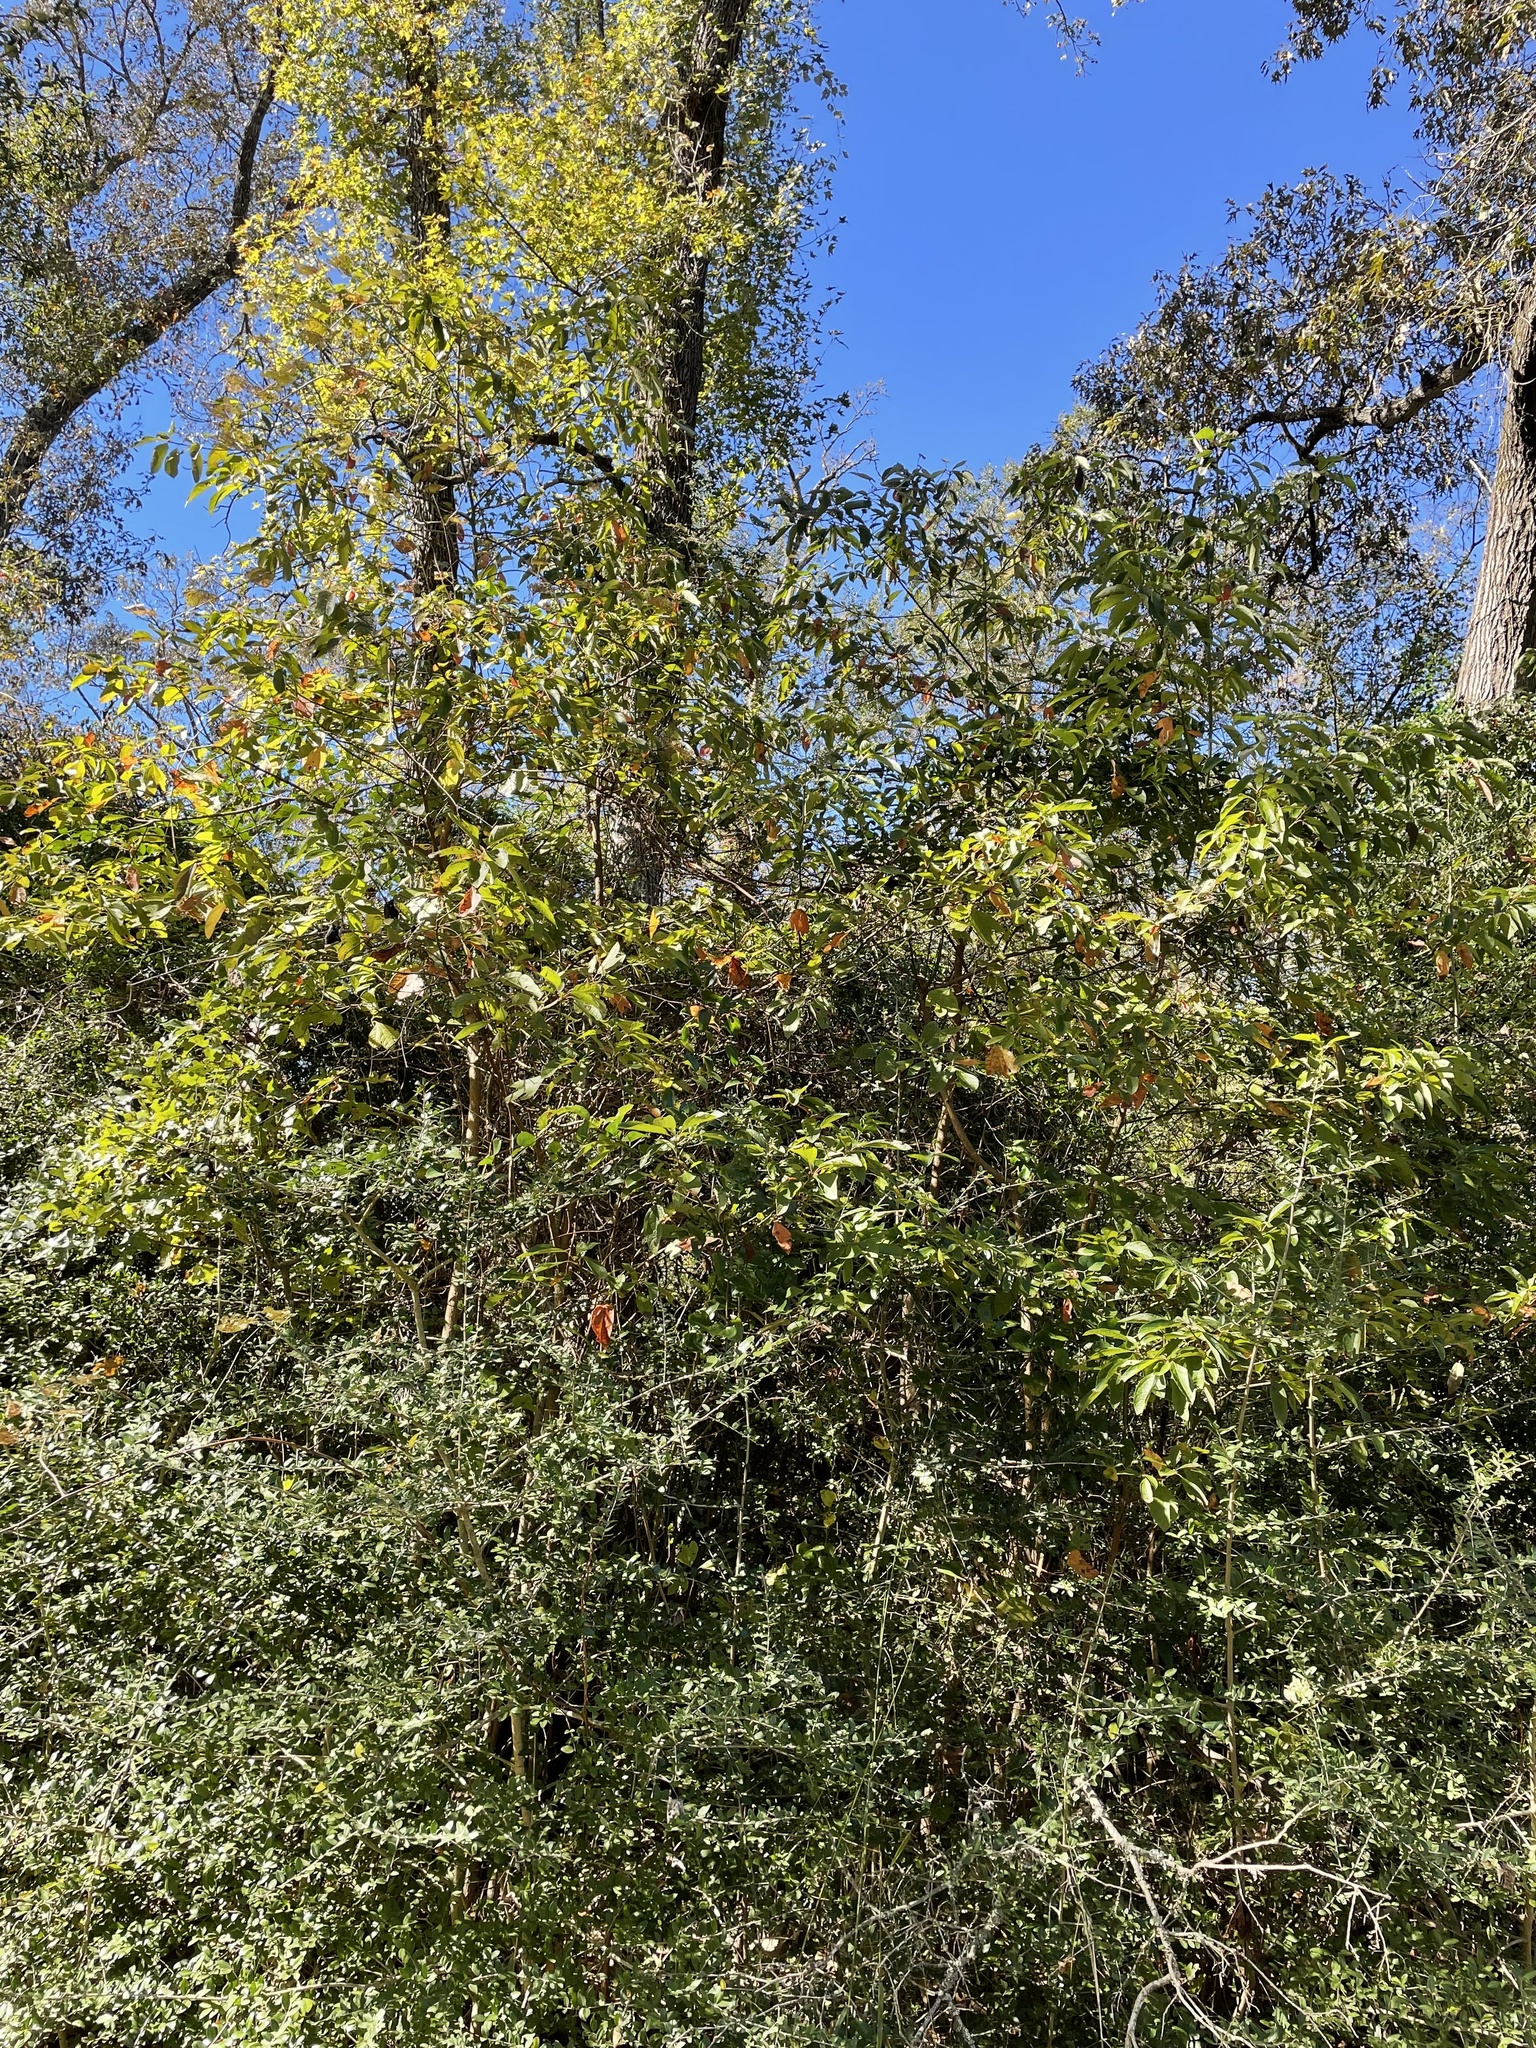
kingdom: Plantae
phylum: Tracheophyta
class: Magnoliopsida
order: Laurales
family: Lauraceae
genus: Sassafras
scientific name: Sassafras albidum
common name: Sassafras
